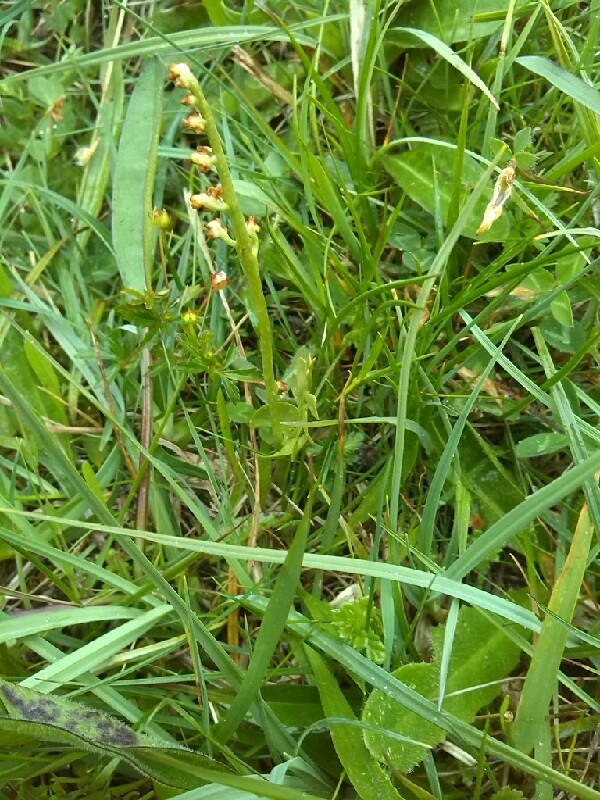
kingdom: Plantae
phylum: Tracheophyta
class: Polypodiopsida
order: Ophioglossales
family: Ophioglossaceae
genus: Botrychium
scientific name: Botrychium lunaria
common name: Moonwort
